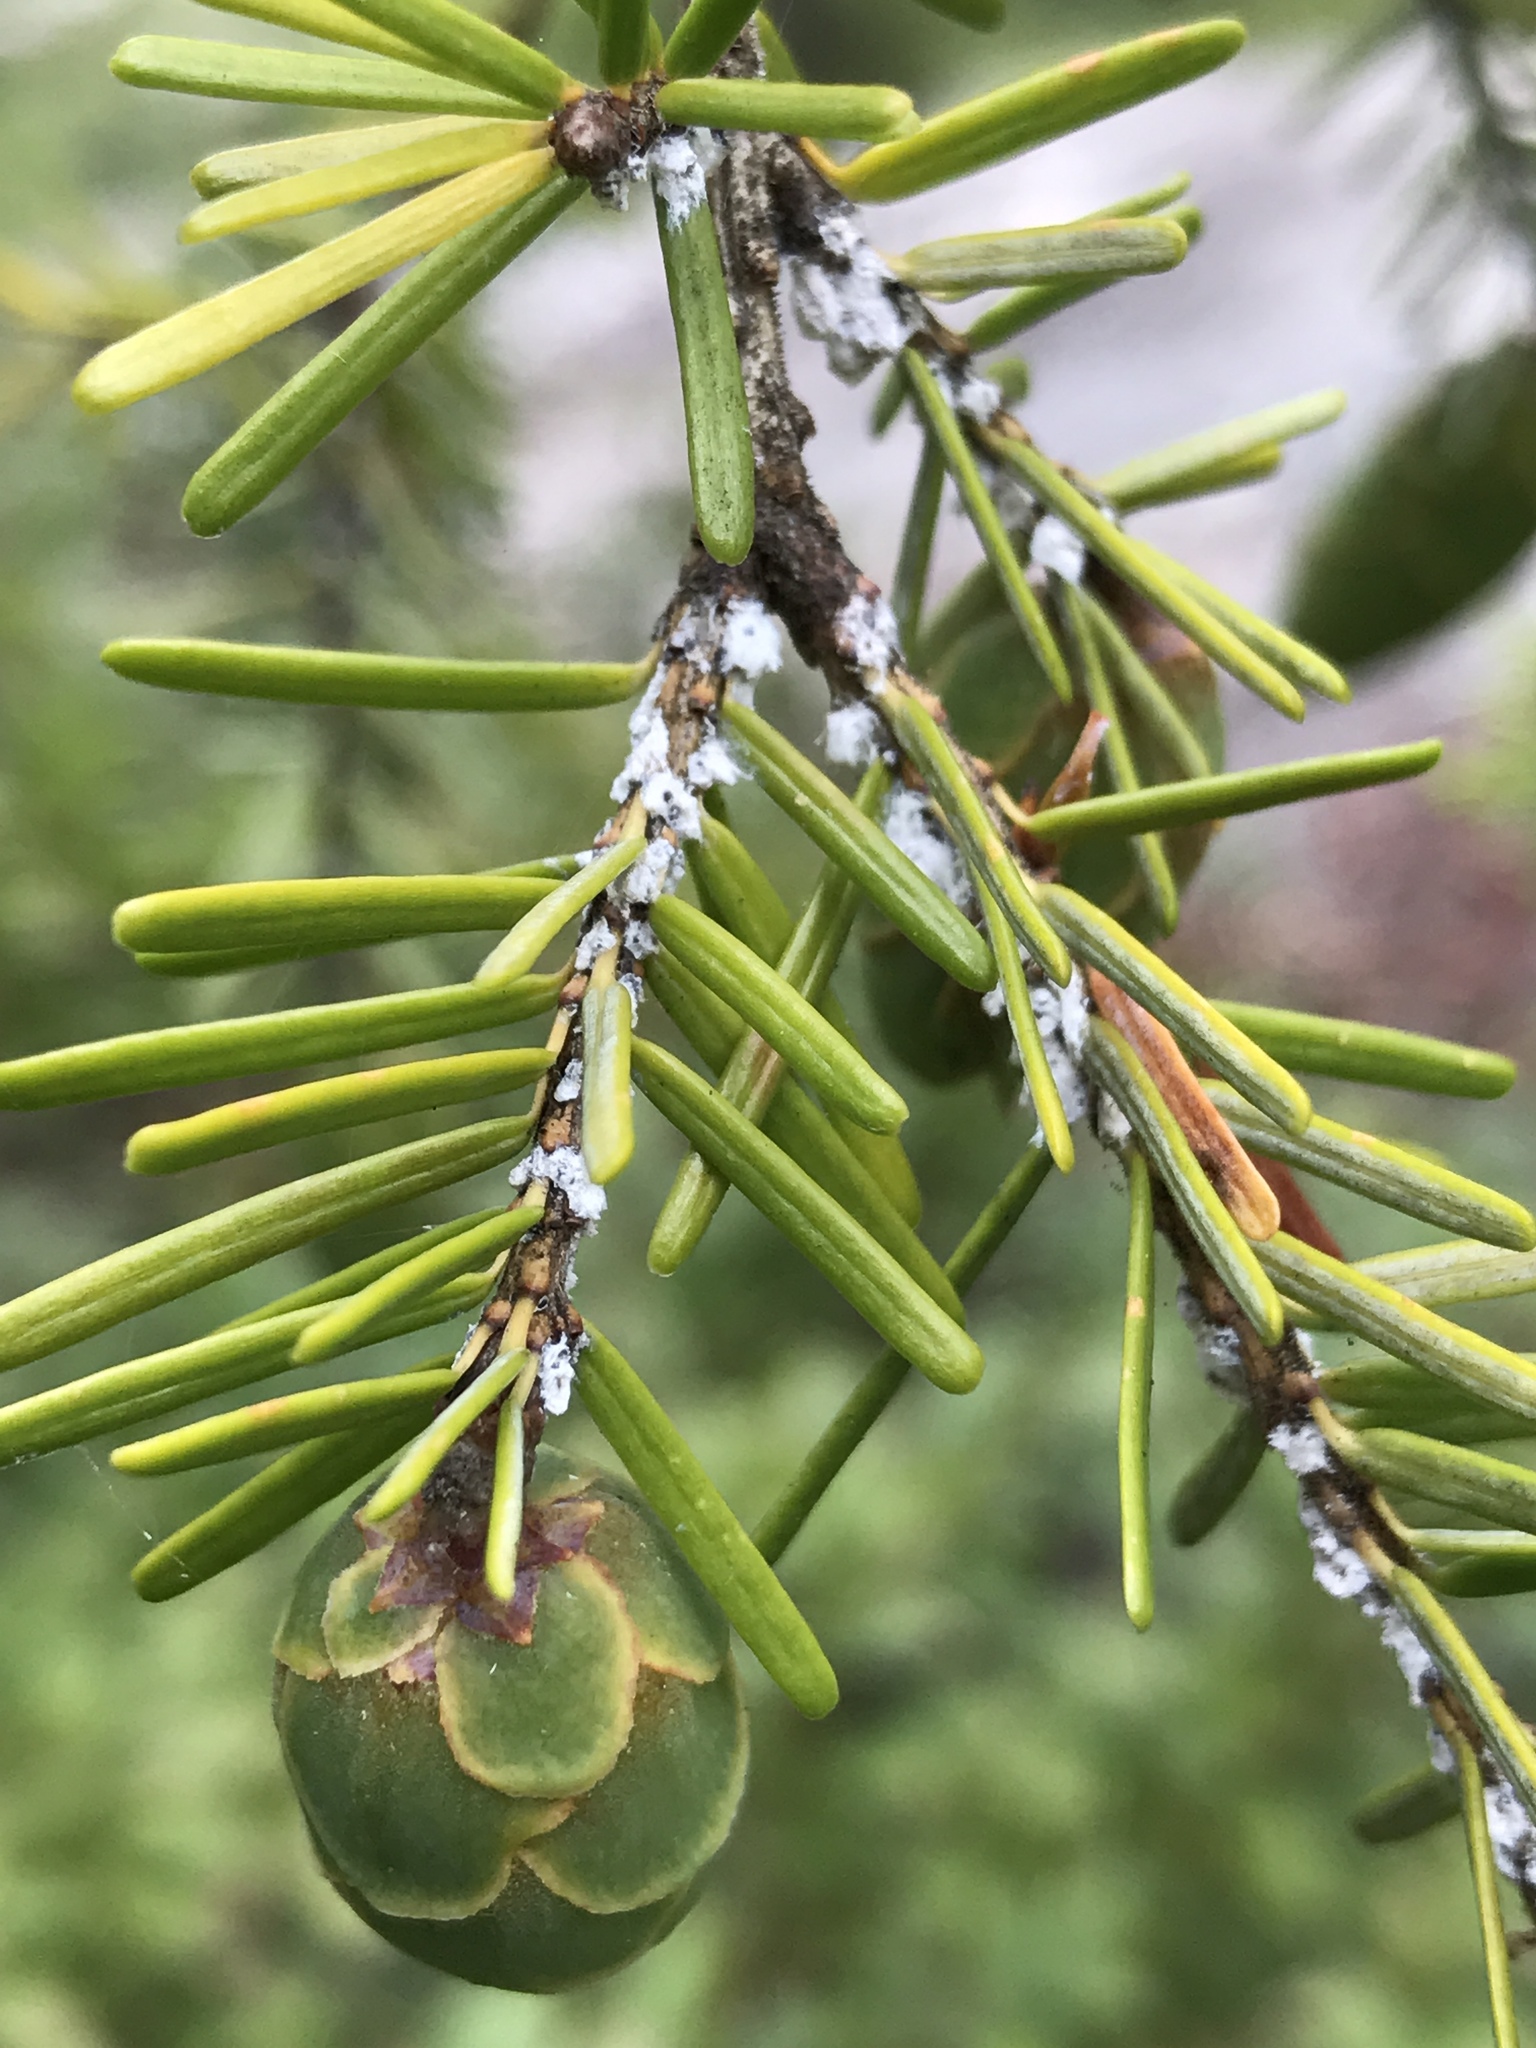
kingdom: Animalia
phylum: Arthropoda
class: Insecta
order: Hemiptera
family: Adelgidae
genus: Adelges
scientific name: Adelges tsugae
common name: Hemlock woolly adelgid
